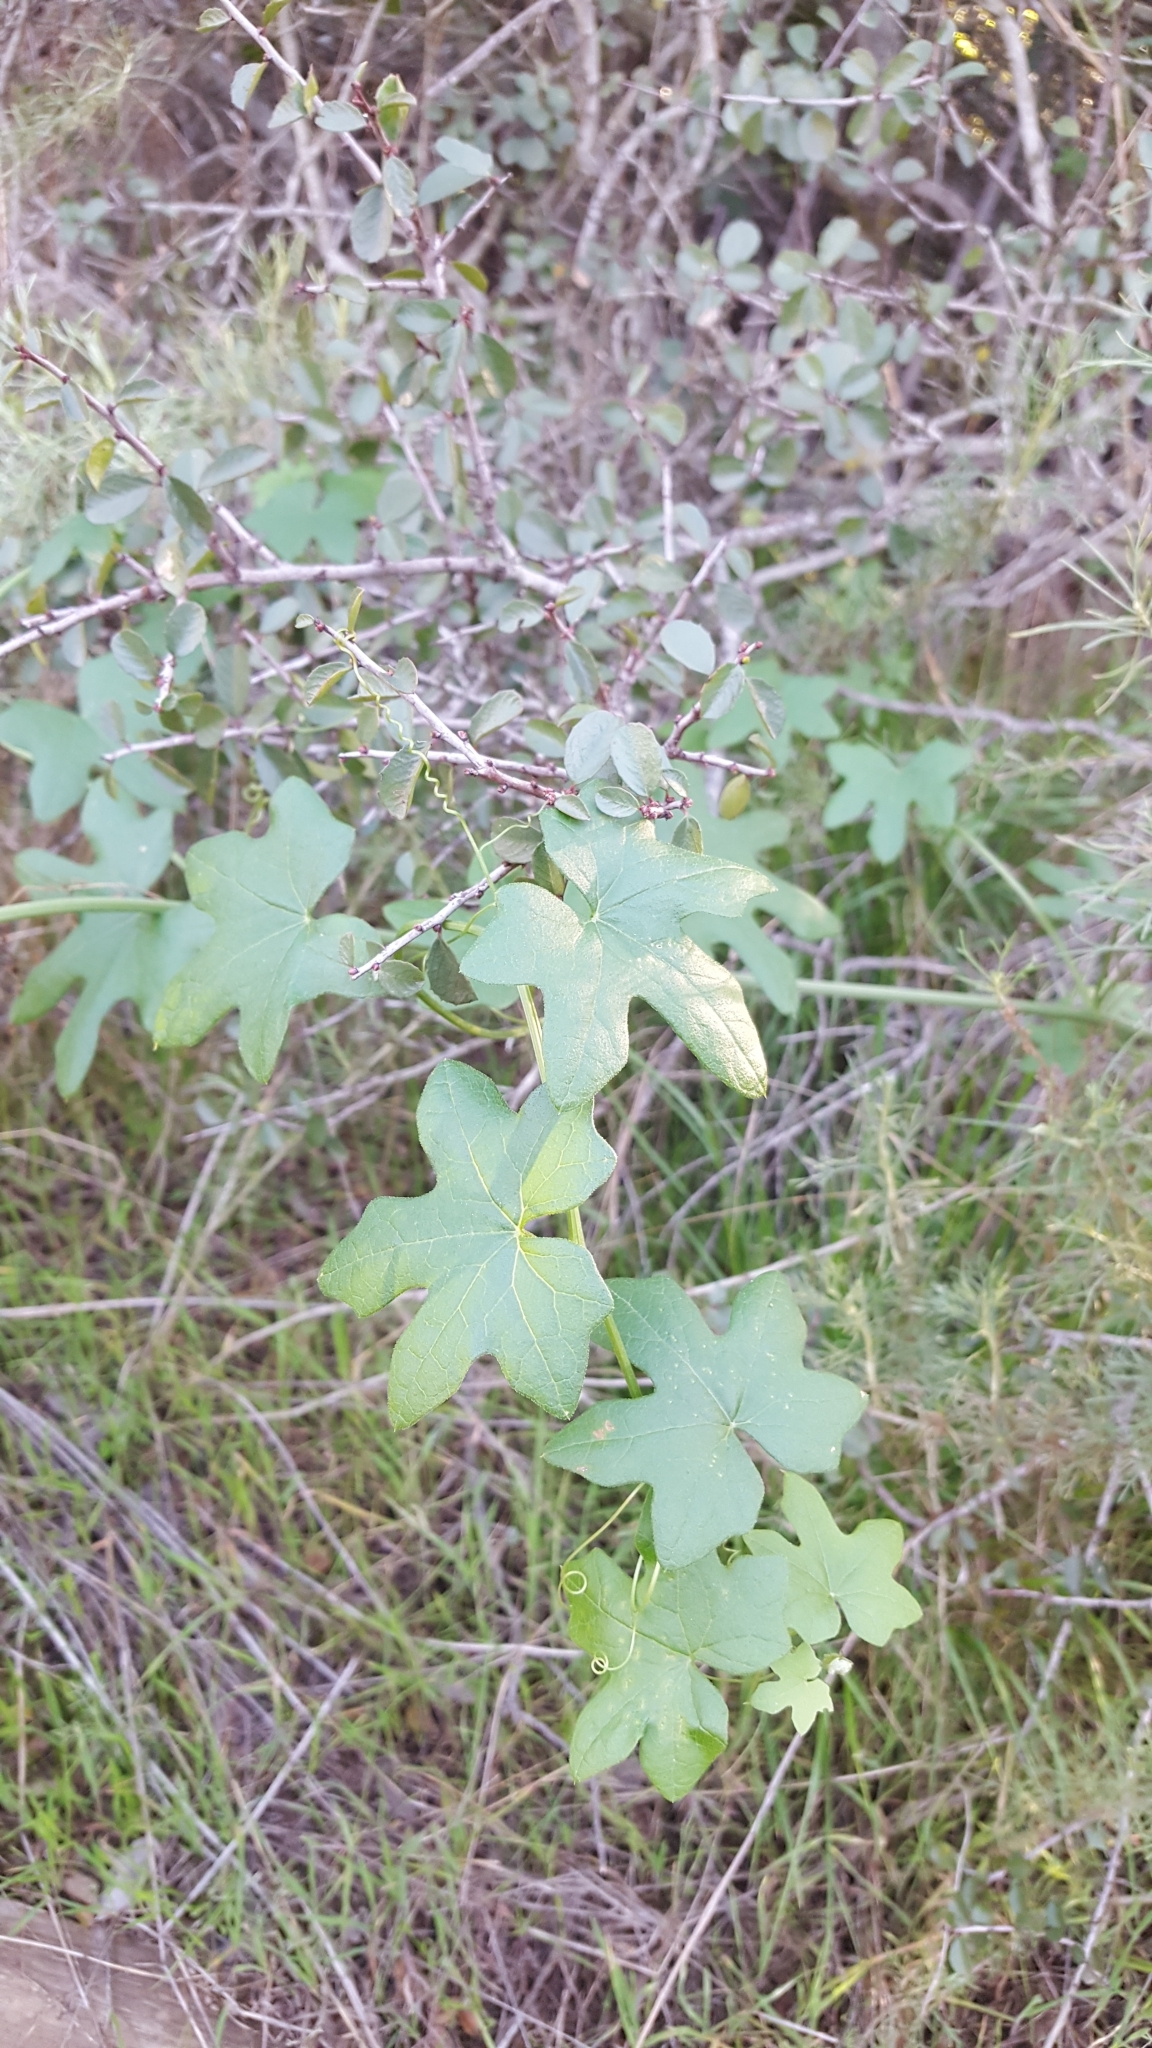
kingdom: Plantae
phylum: Tracheophyta
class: Magnoliopsida
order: Cucurbitales
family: Cucurbitaceae
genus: Marah
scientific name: Marah macrocarpa
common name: Cucamonga manroot
